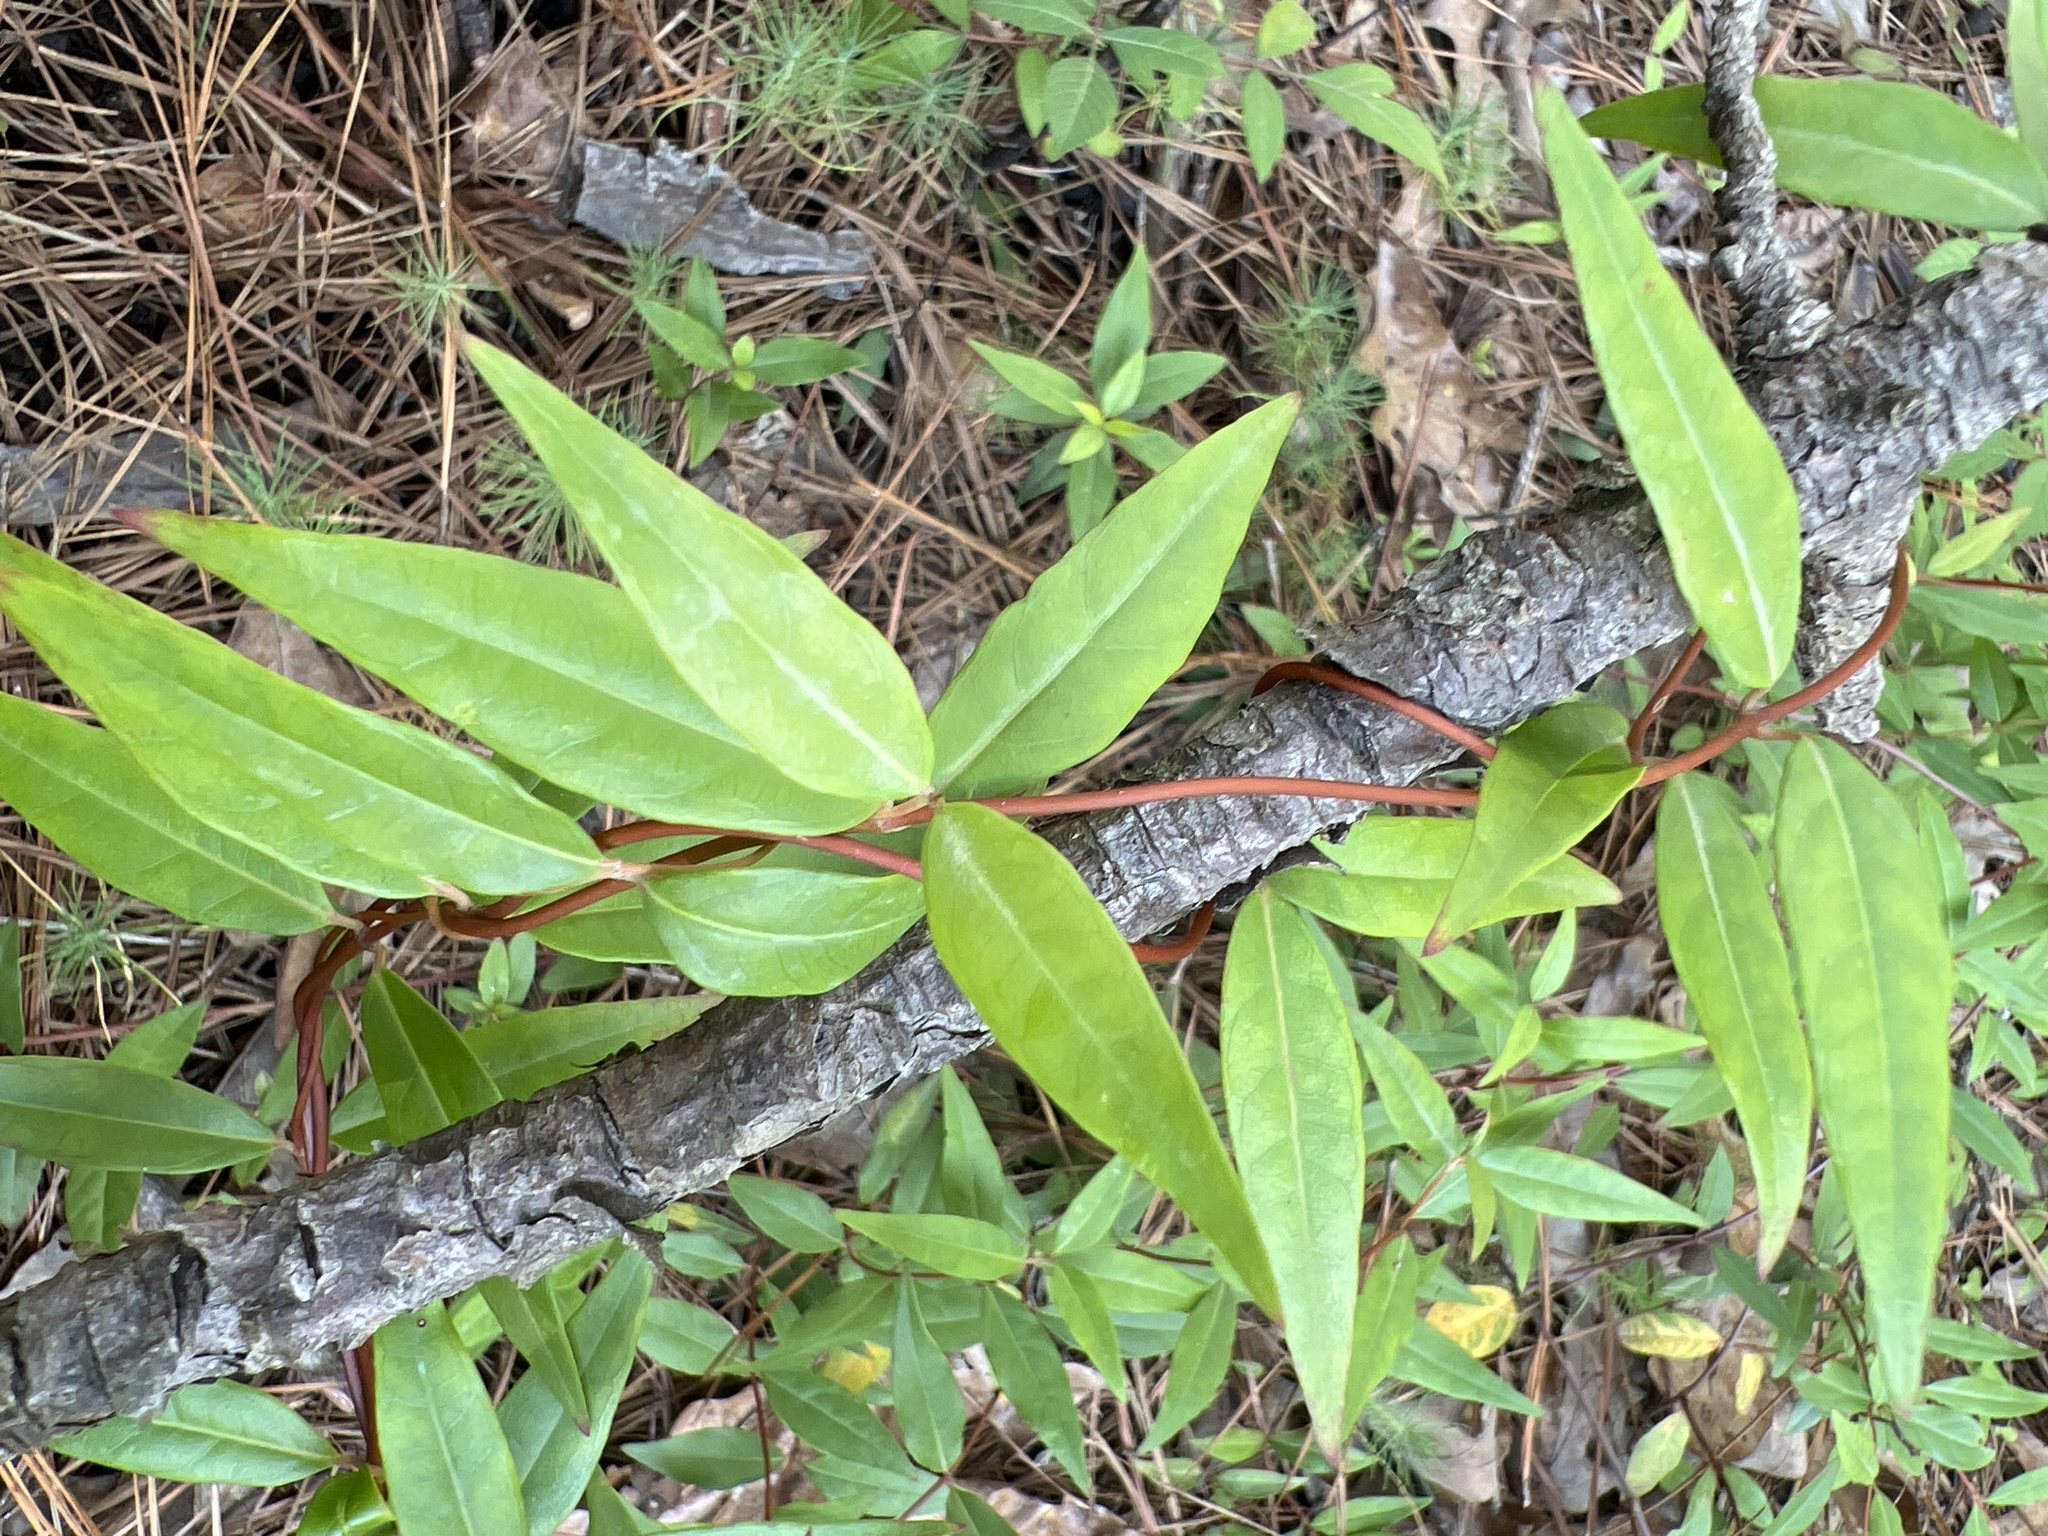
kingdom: Plantae
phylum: Tracheophyta
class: Magnoliopsida
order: Gentianales
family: Gelsemiaceae
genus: Gelsemium
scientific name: Gelsemium sempervirens
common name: Carolina-jasmine
